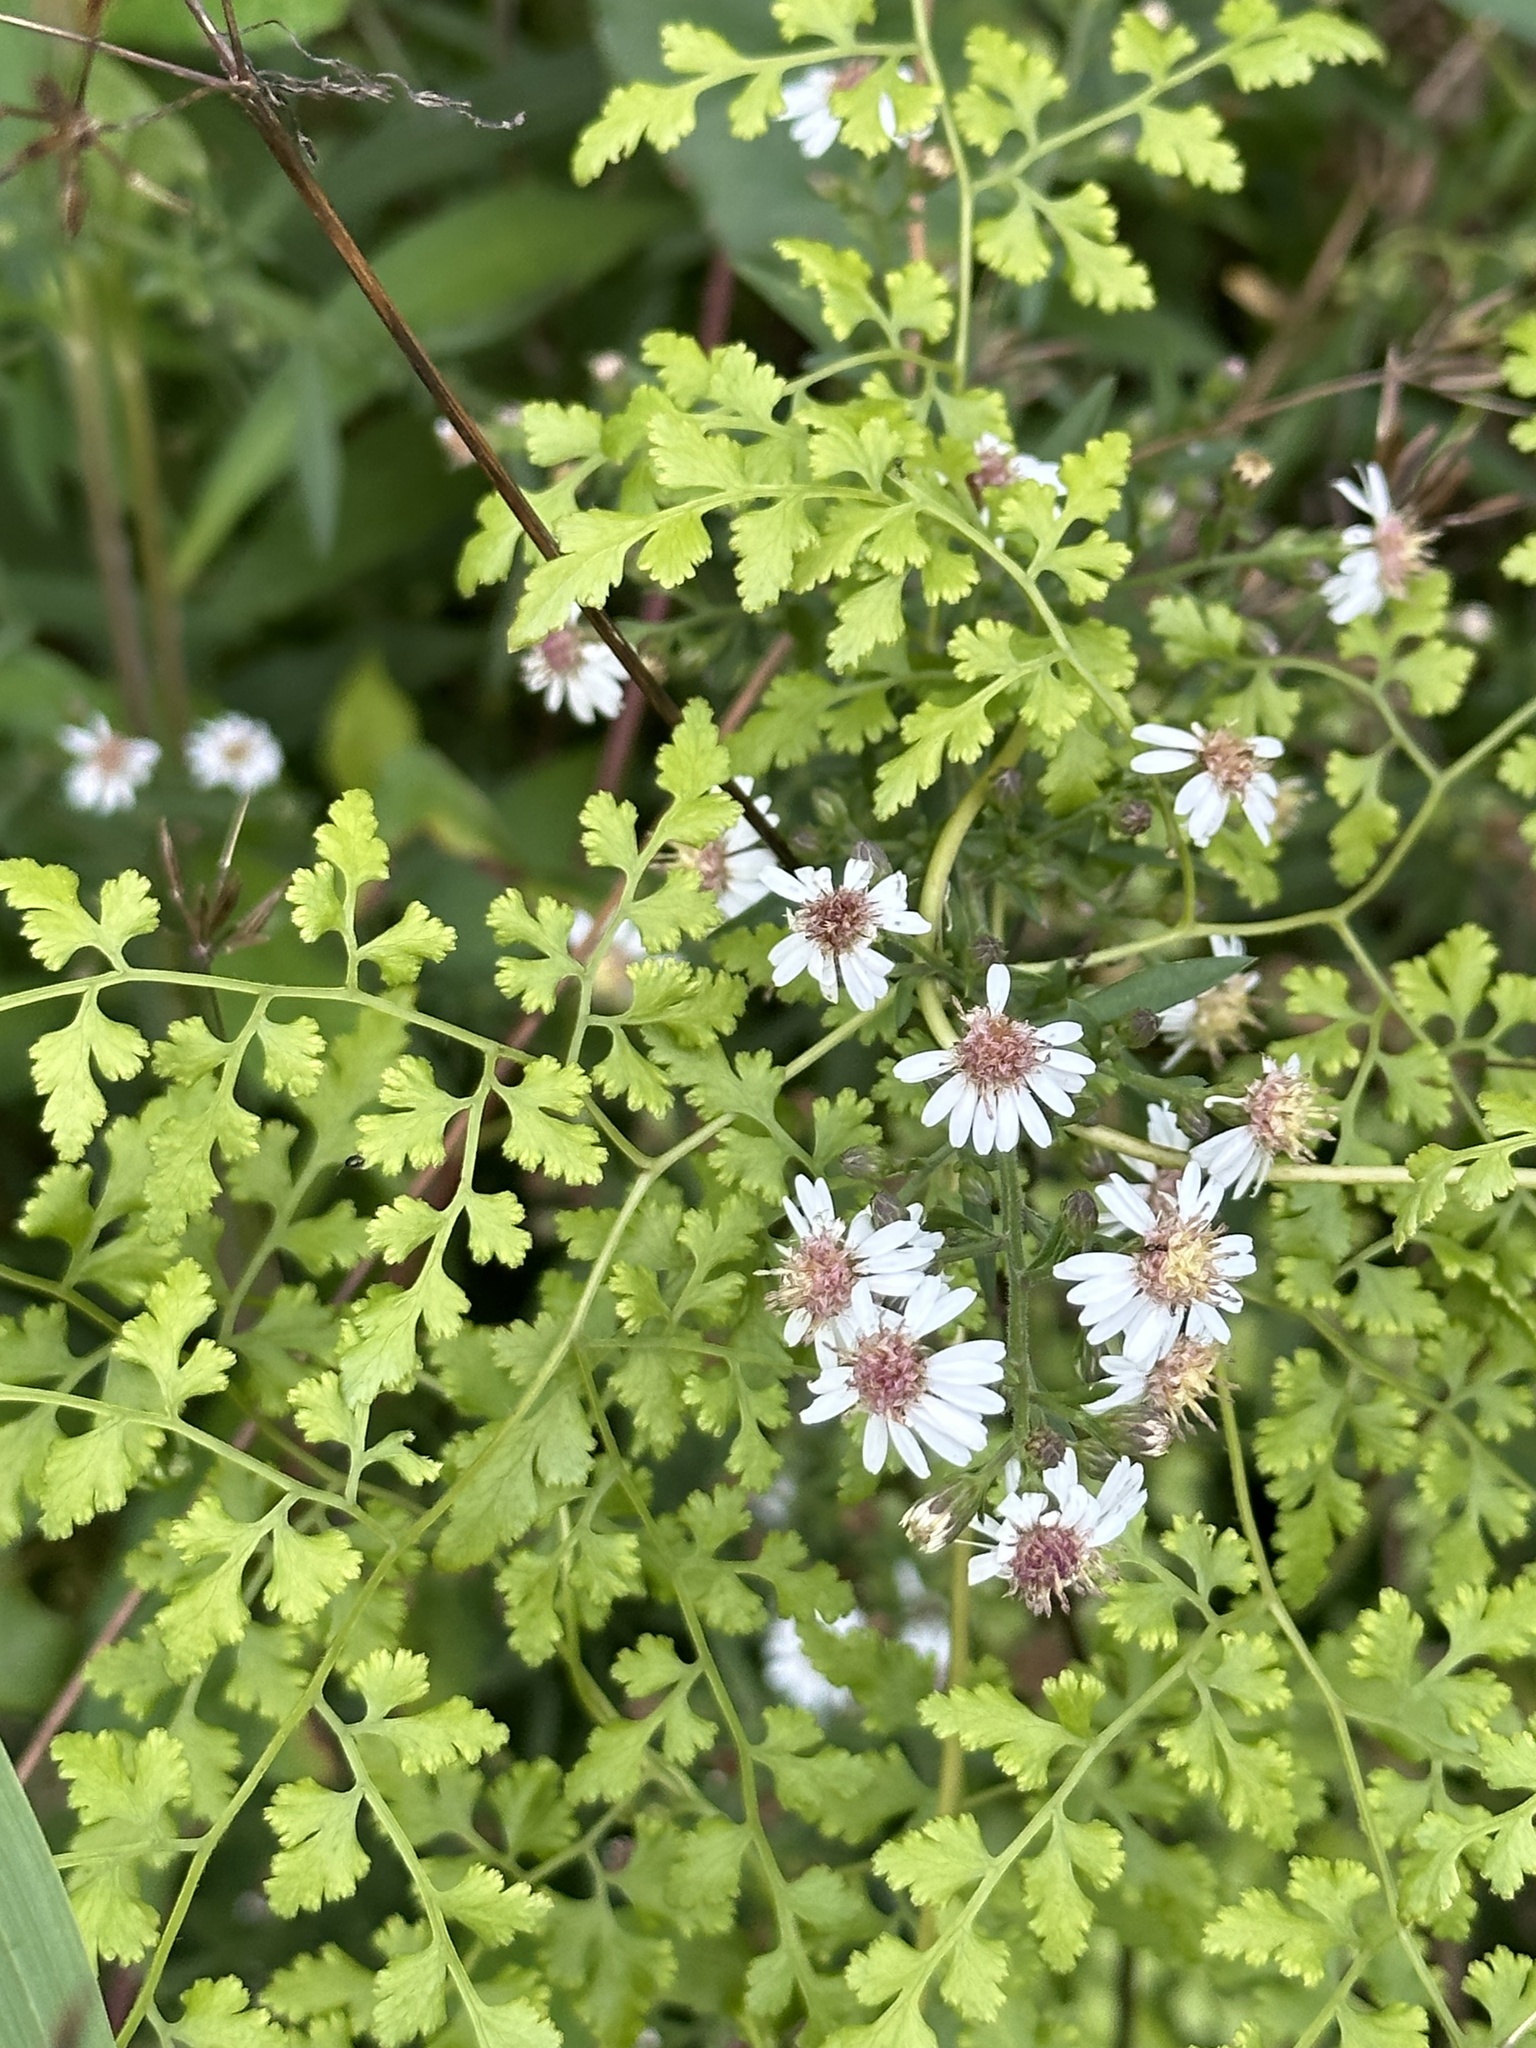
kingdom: Plantae
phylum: Tracheophyta
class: Polypodiopsida
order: Schizaeales
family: Lygodiaceae
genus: Lygodium
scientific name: Lygodium japonicum
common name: Japanese climbing fern
